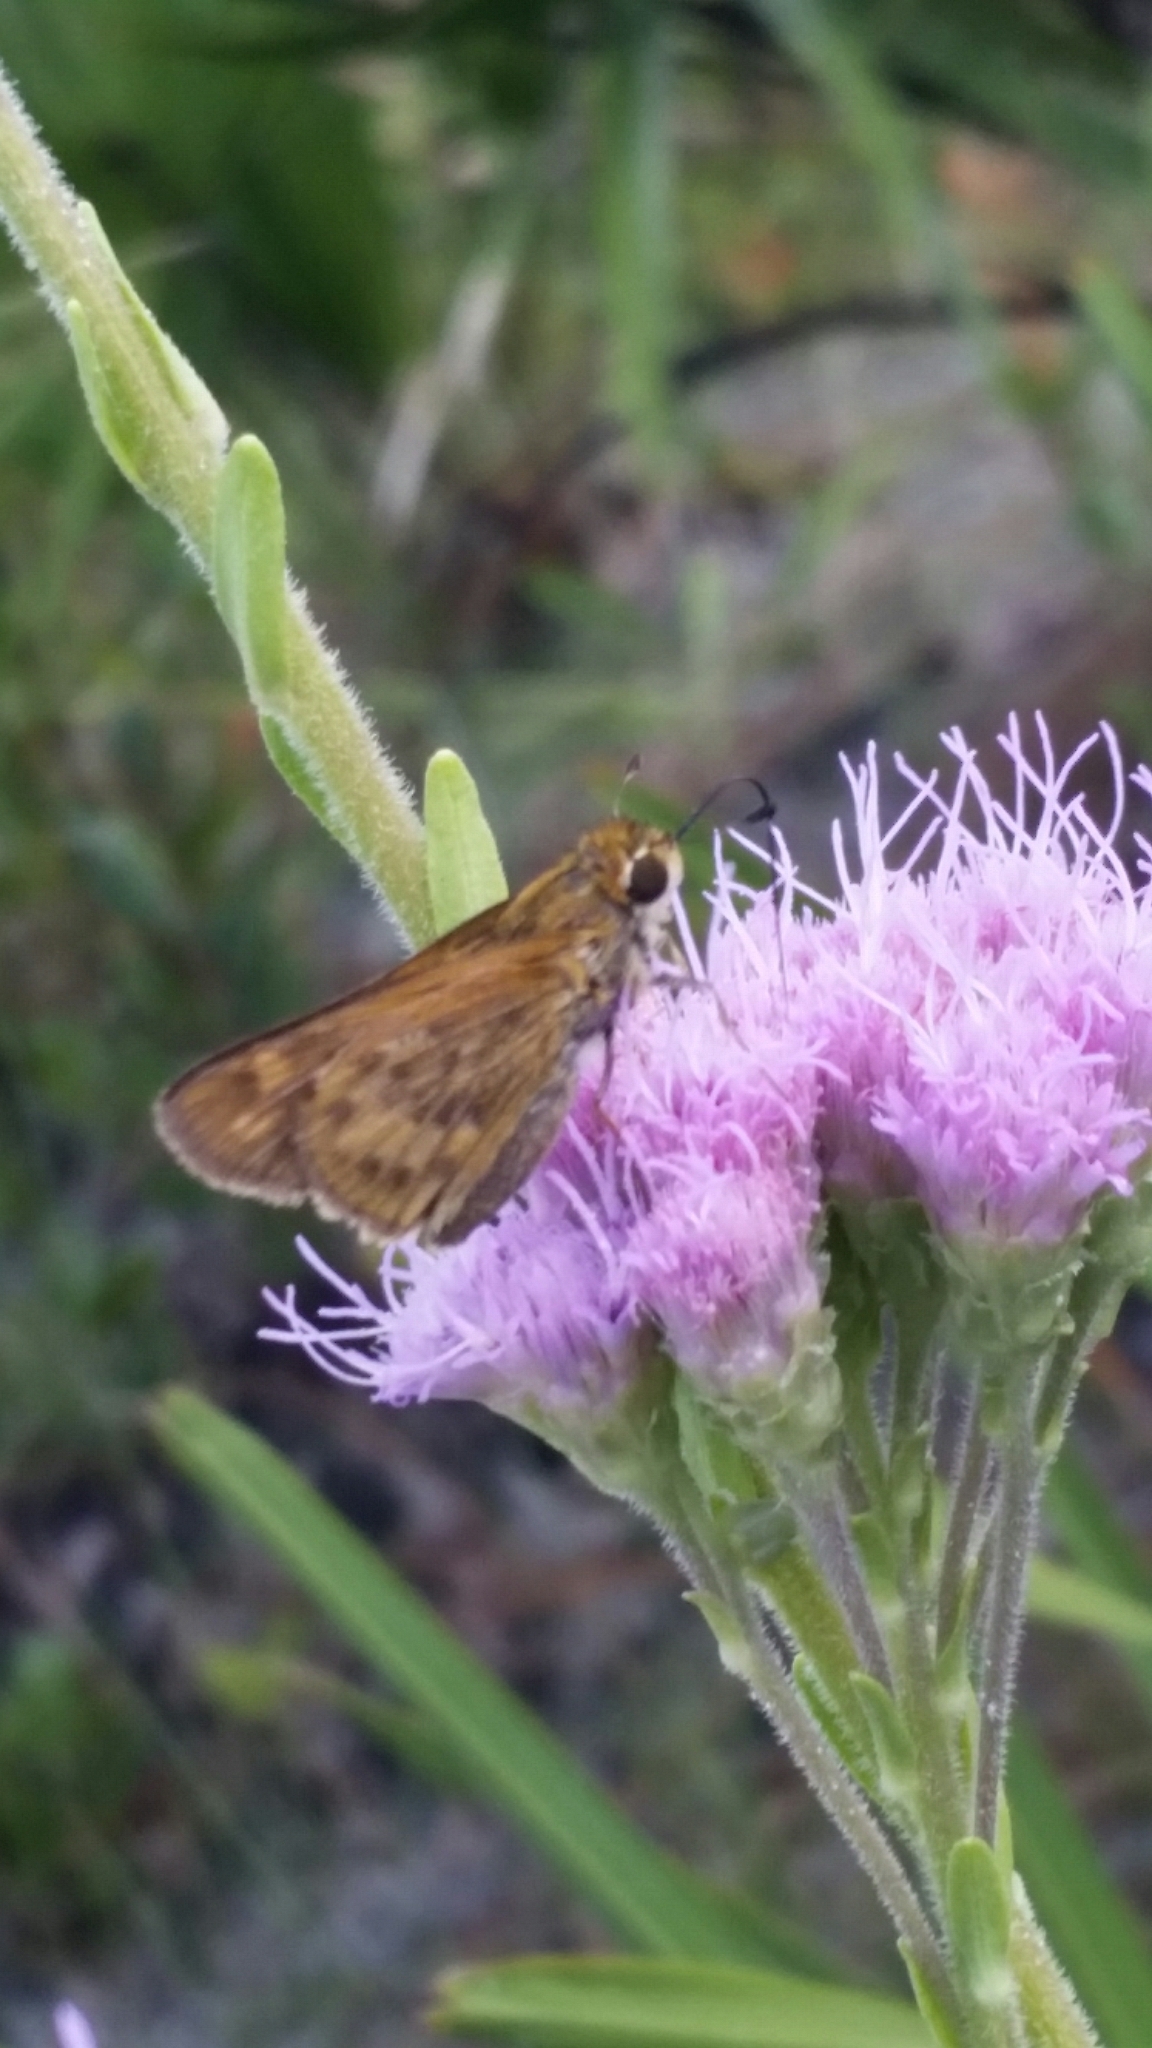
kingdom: Animalia
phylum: Arthropoda
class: Insecta
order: Lepidoptera
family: Hesperiidae
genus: Hylephila
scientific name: Hylephila phyleus
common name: Fiery skipper
